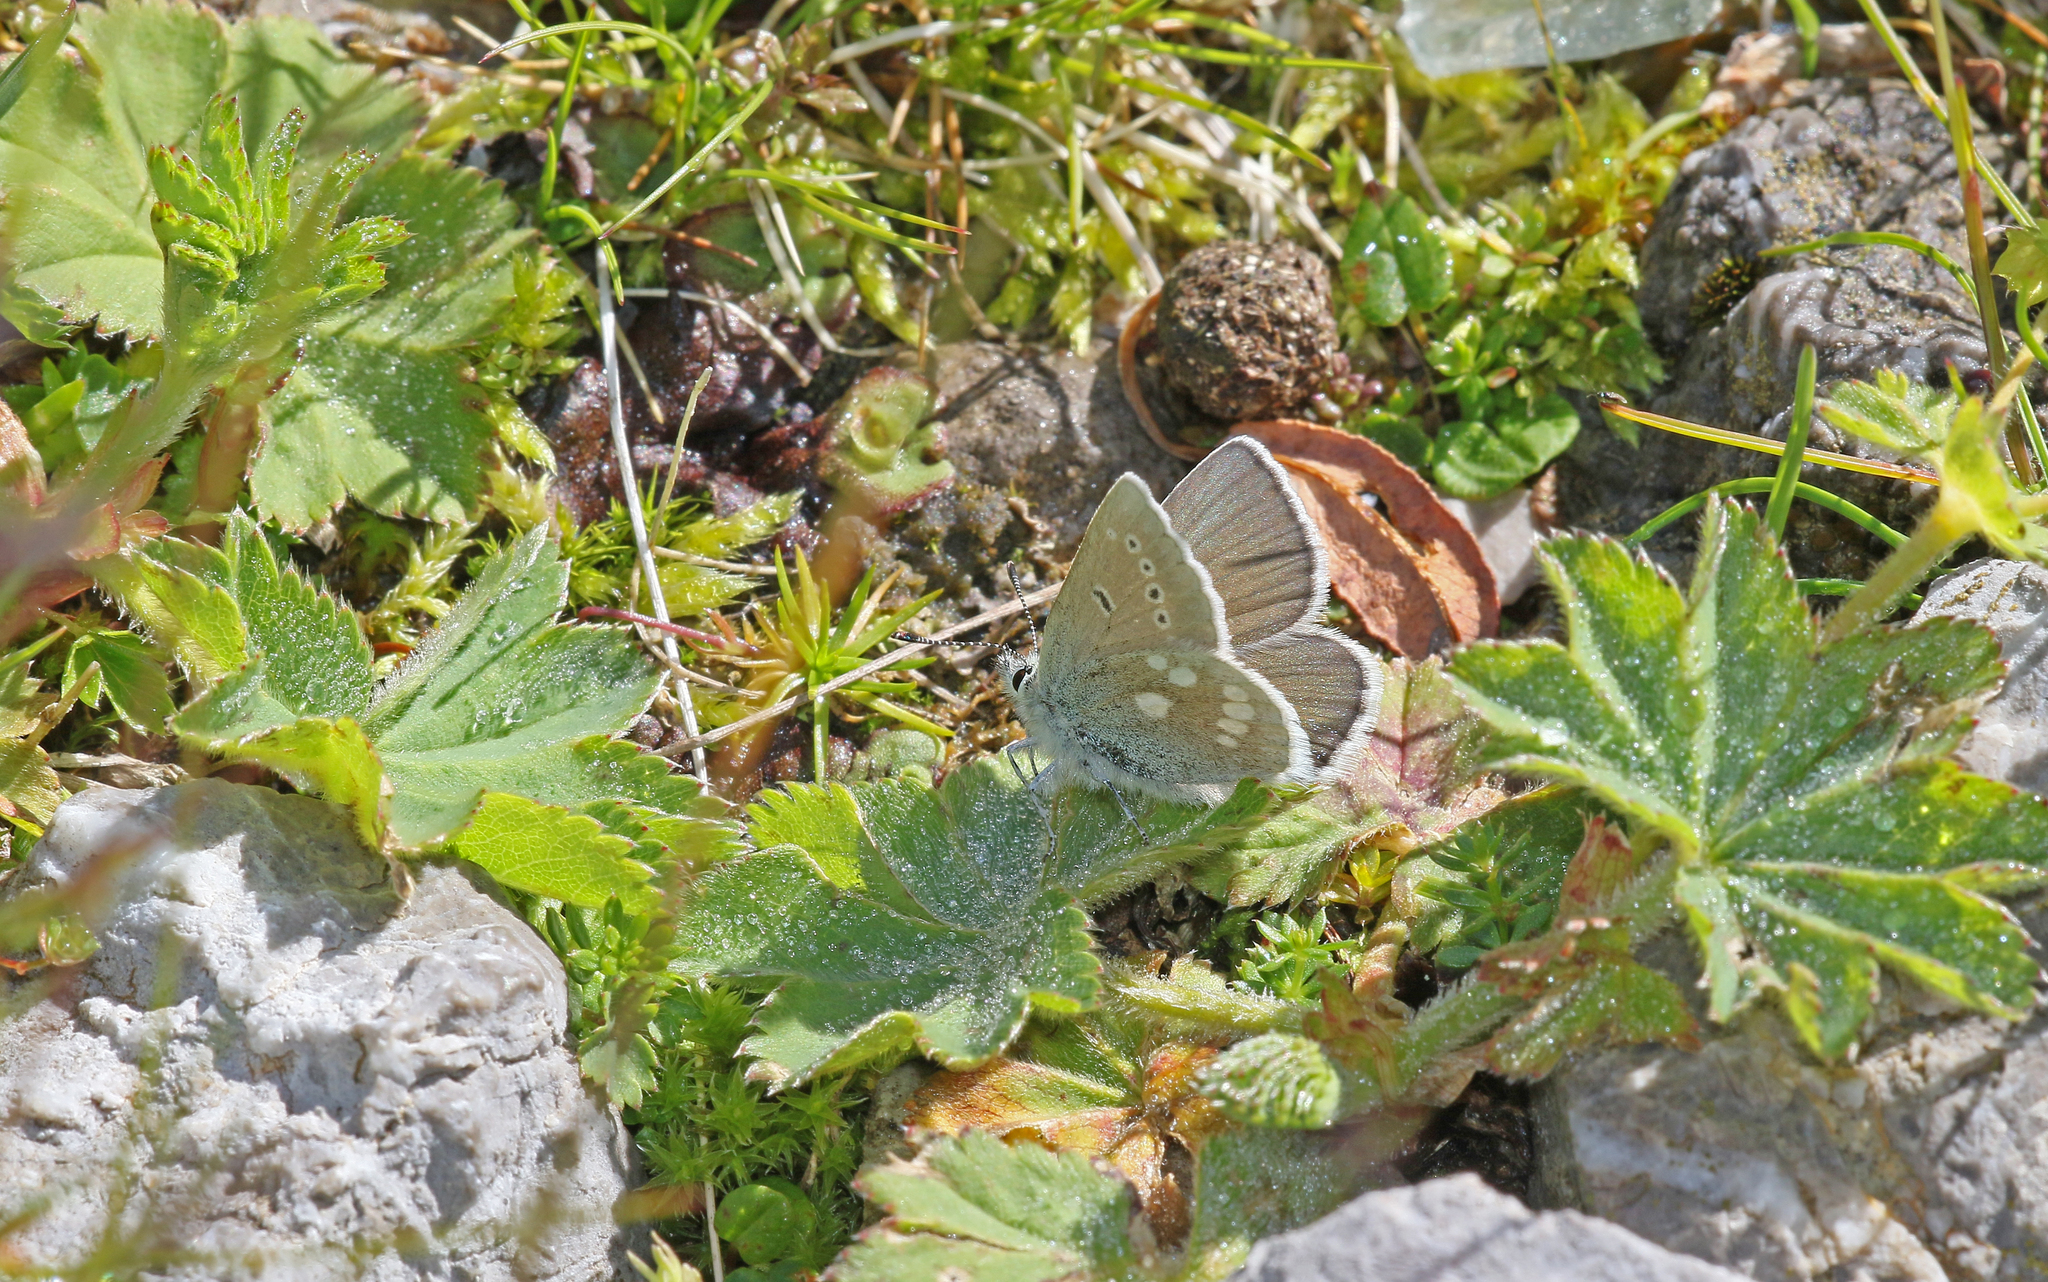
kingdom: Animalia
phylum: Arthropoda
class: Insecta
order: Lepidoptera
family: Lycaenidae
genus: Albulina
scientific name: Albulina orbitulus
